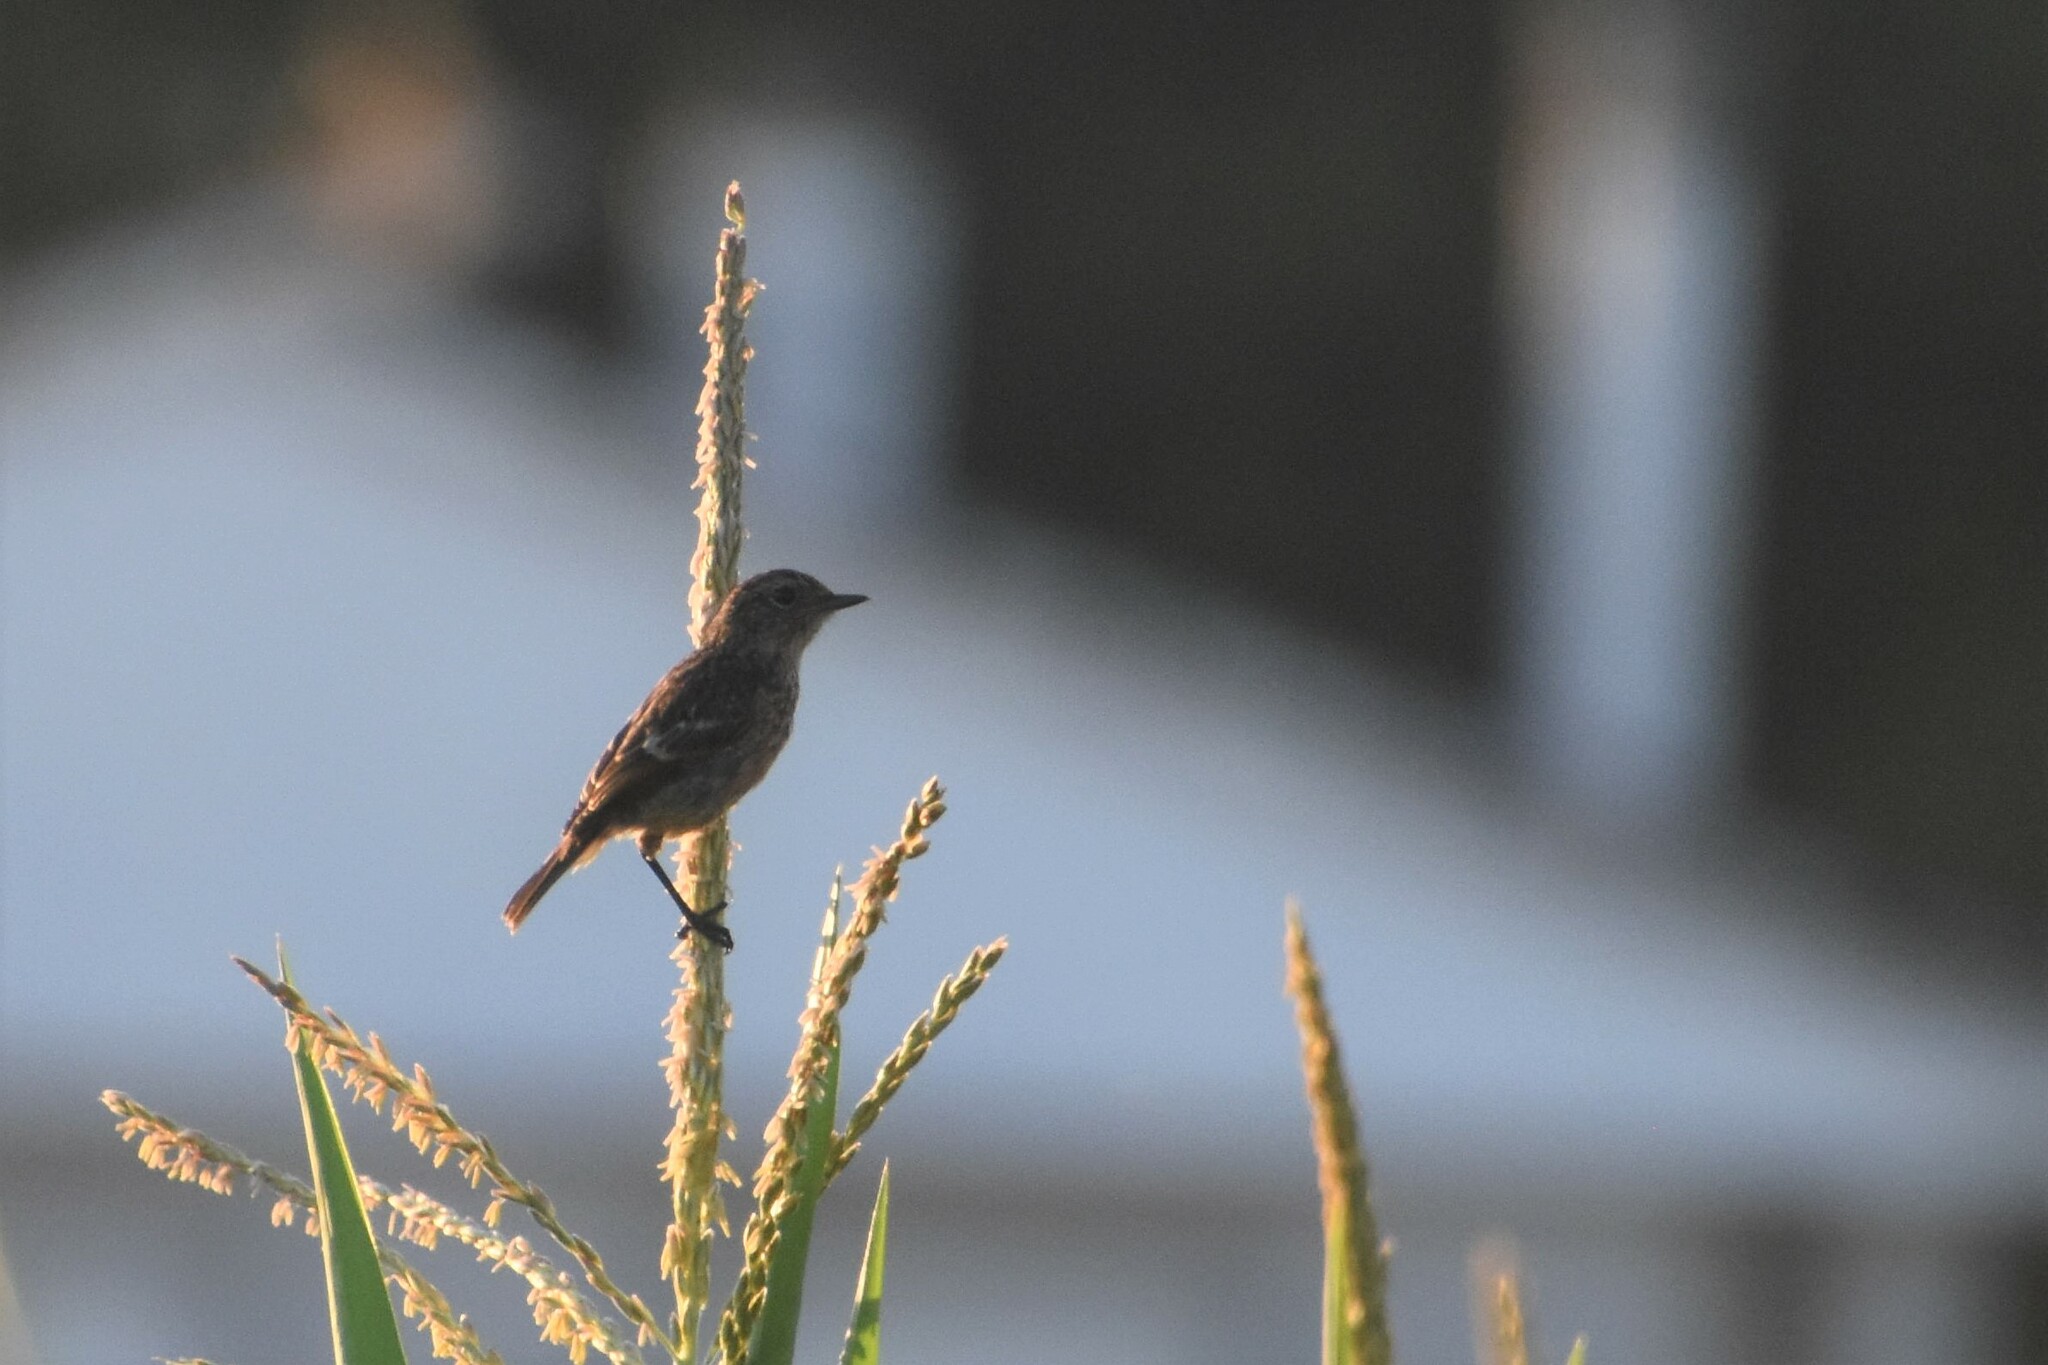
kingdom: Animalia
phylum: Chordata
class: Aves
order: Passeriformes
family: Muscicapidae
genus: Saxicola
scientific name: Saxicola rubicola
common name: European stonechat
